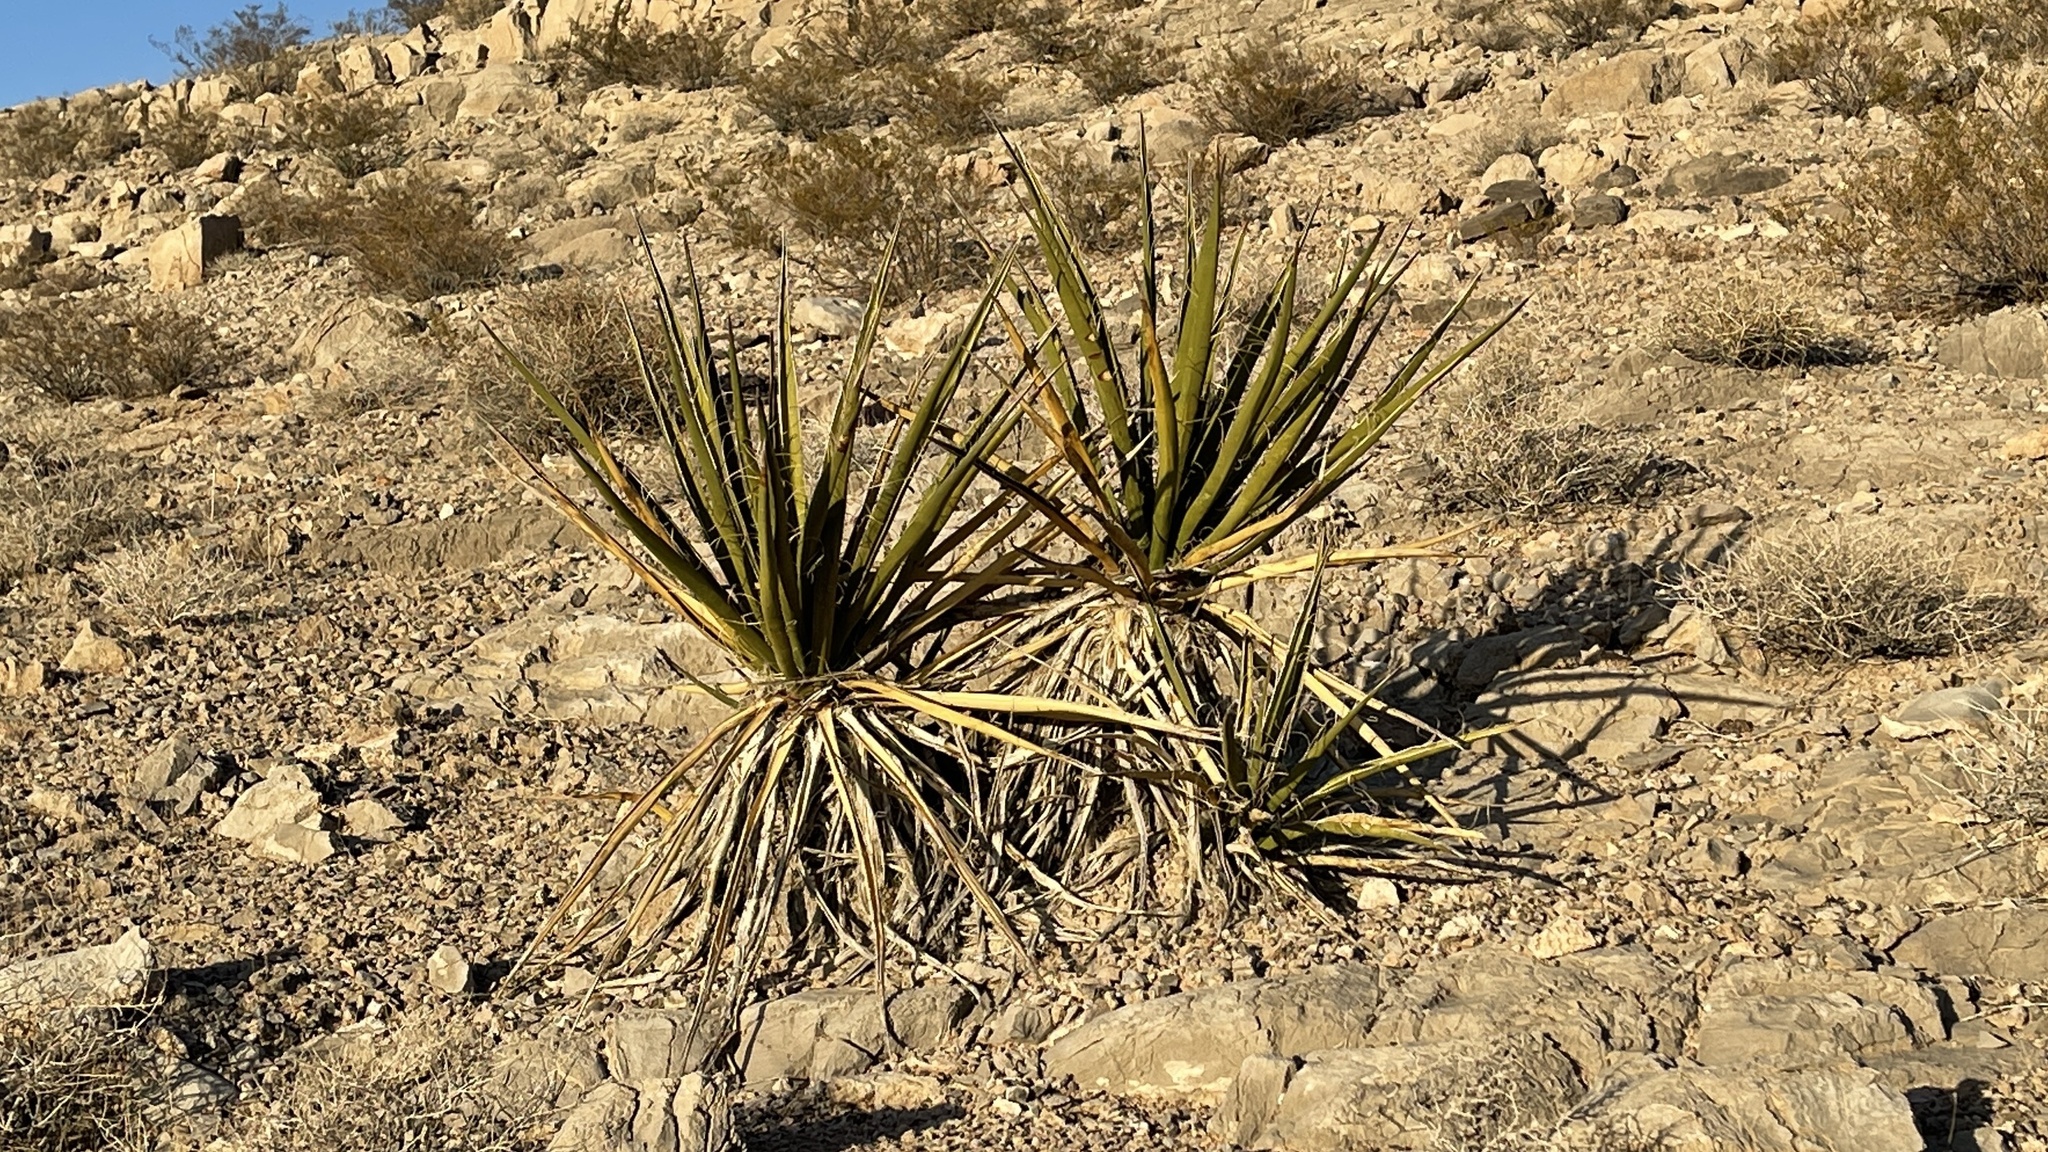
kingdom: Plantae
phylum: Tracheophyta
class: Liliopsida
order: Asparagales
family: Asparagaceae
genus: Yucca
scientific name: Yucca schidigera
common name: Mojave yucca
